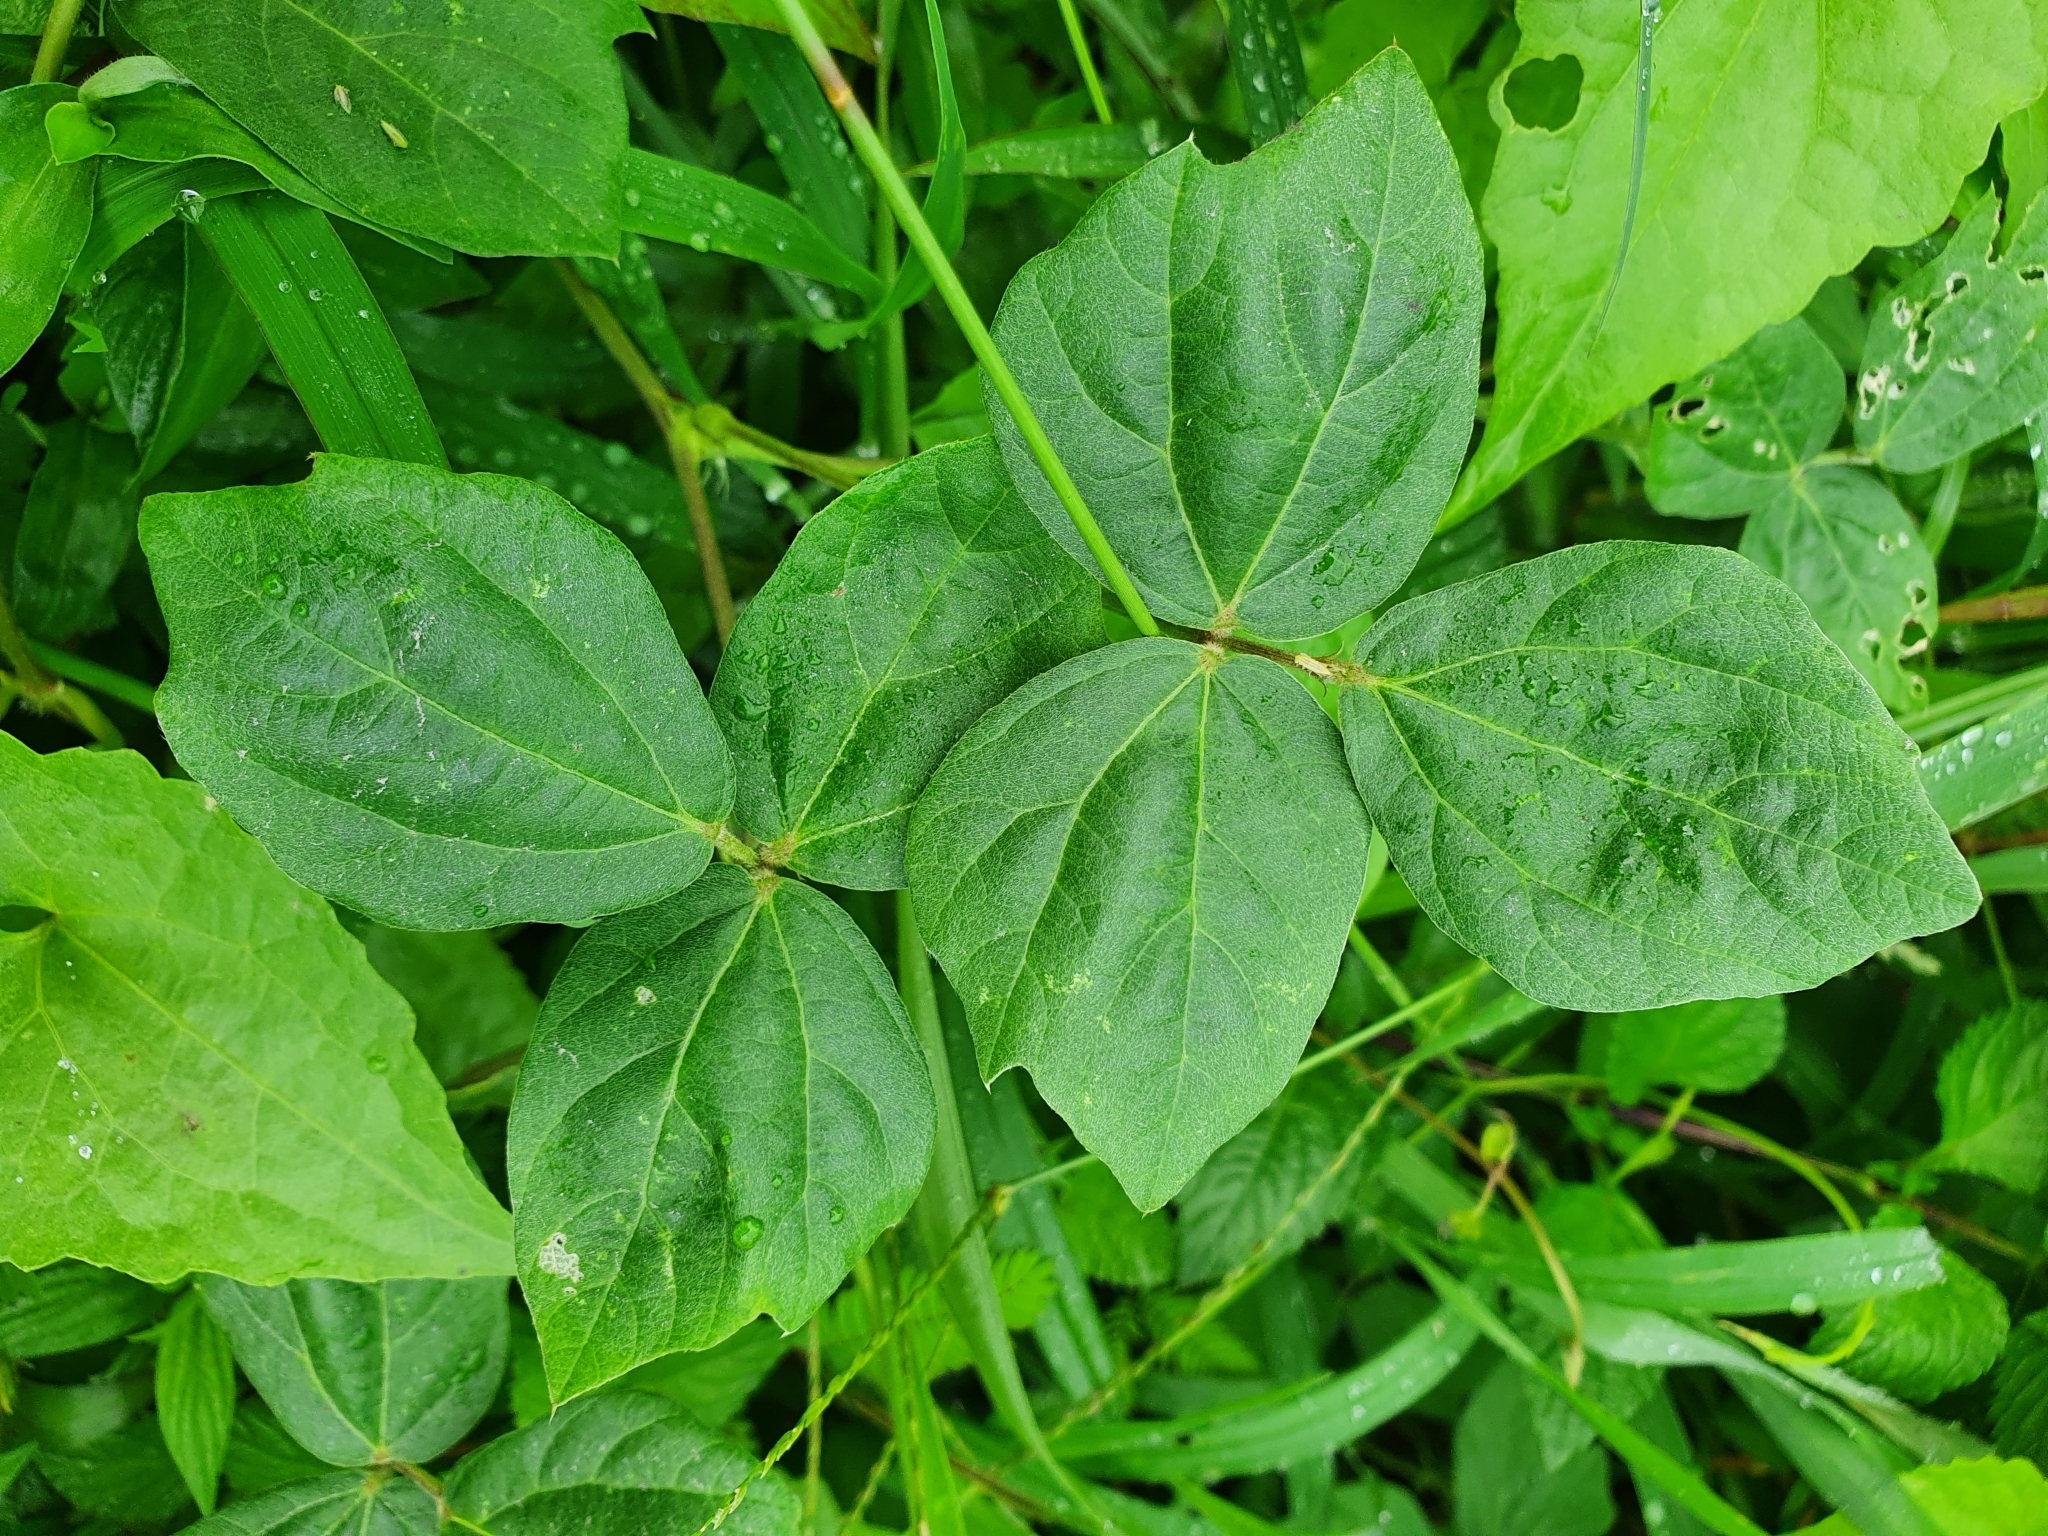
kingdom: Plantae
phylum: Tracheophyta
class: Magnoliopsida
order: Fabales
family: Fabaceae
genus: Macroptilium
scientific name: Macroptilium atropurpureum
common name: Purple bushbean
